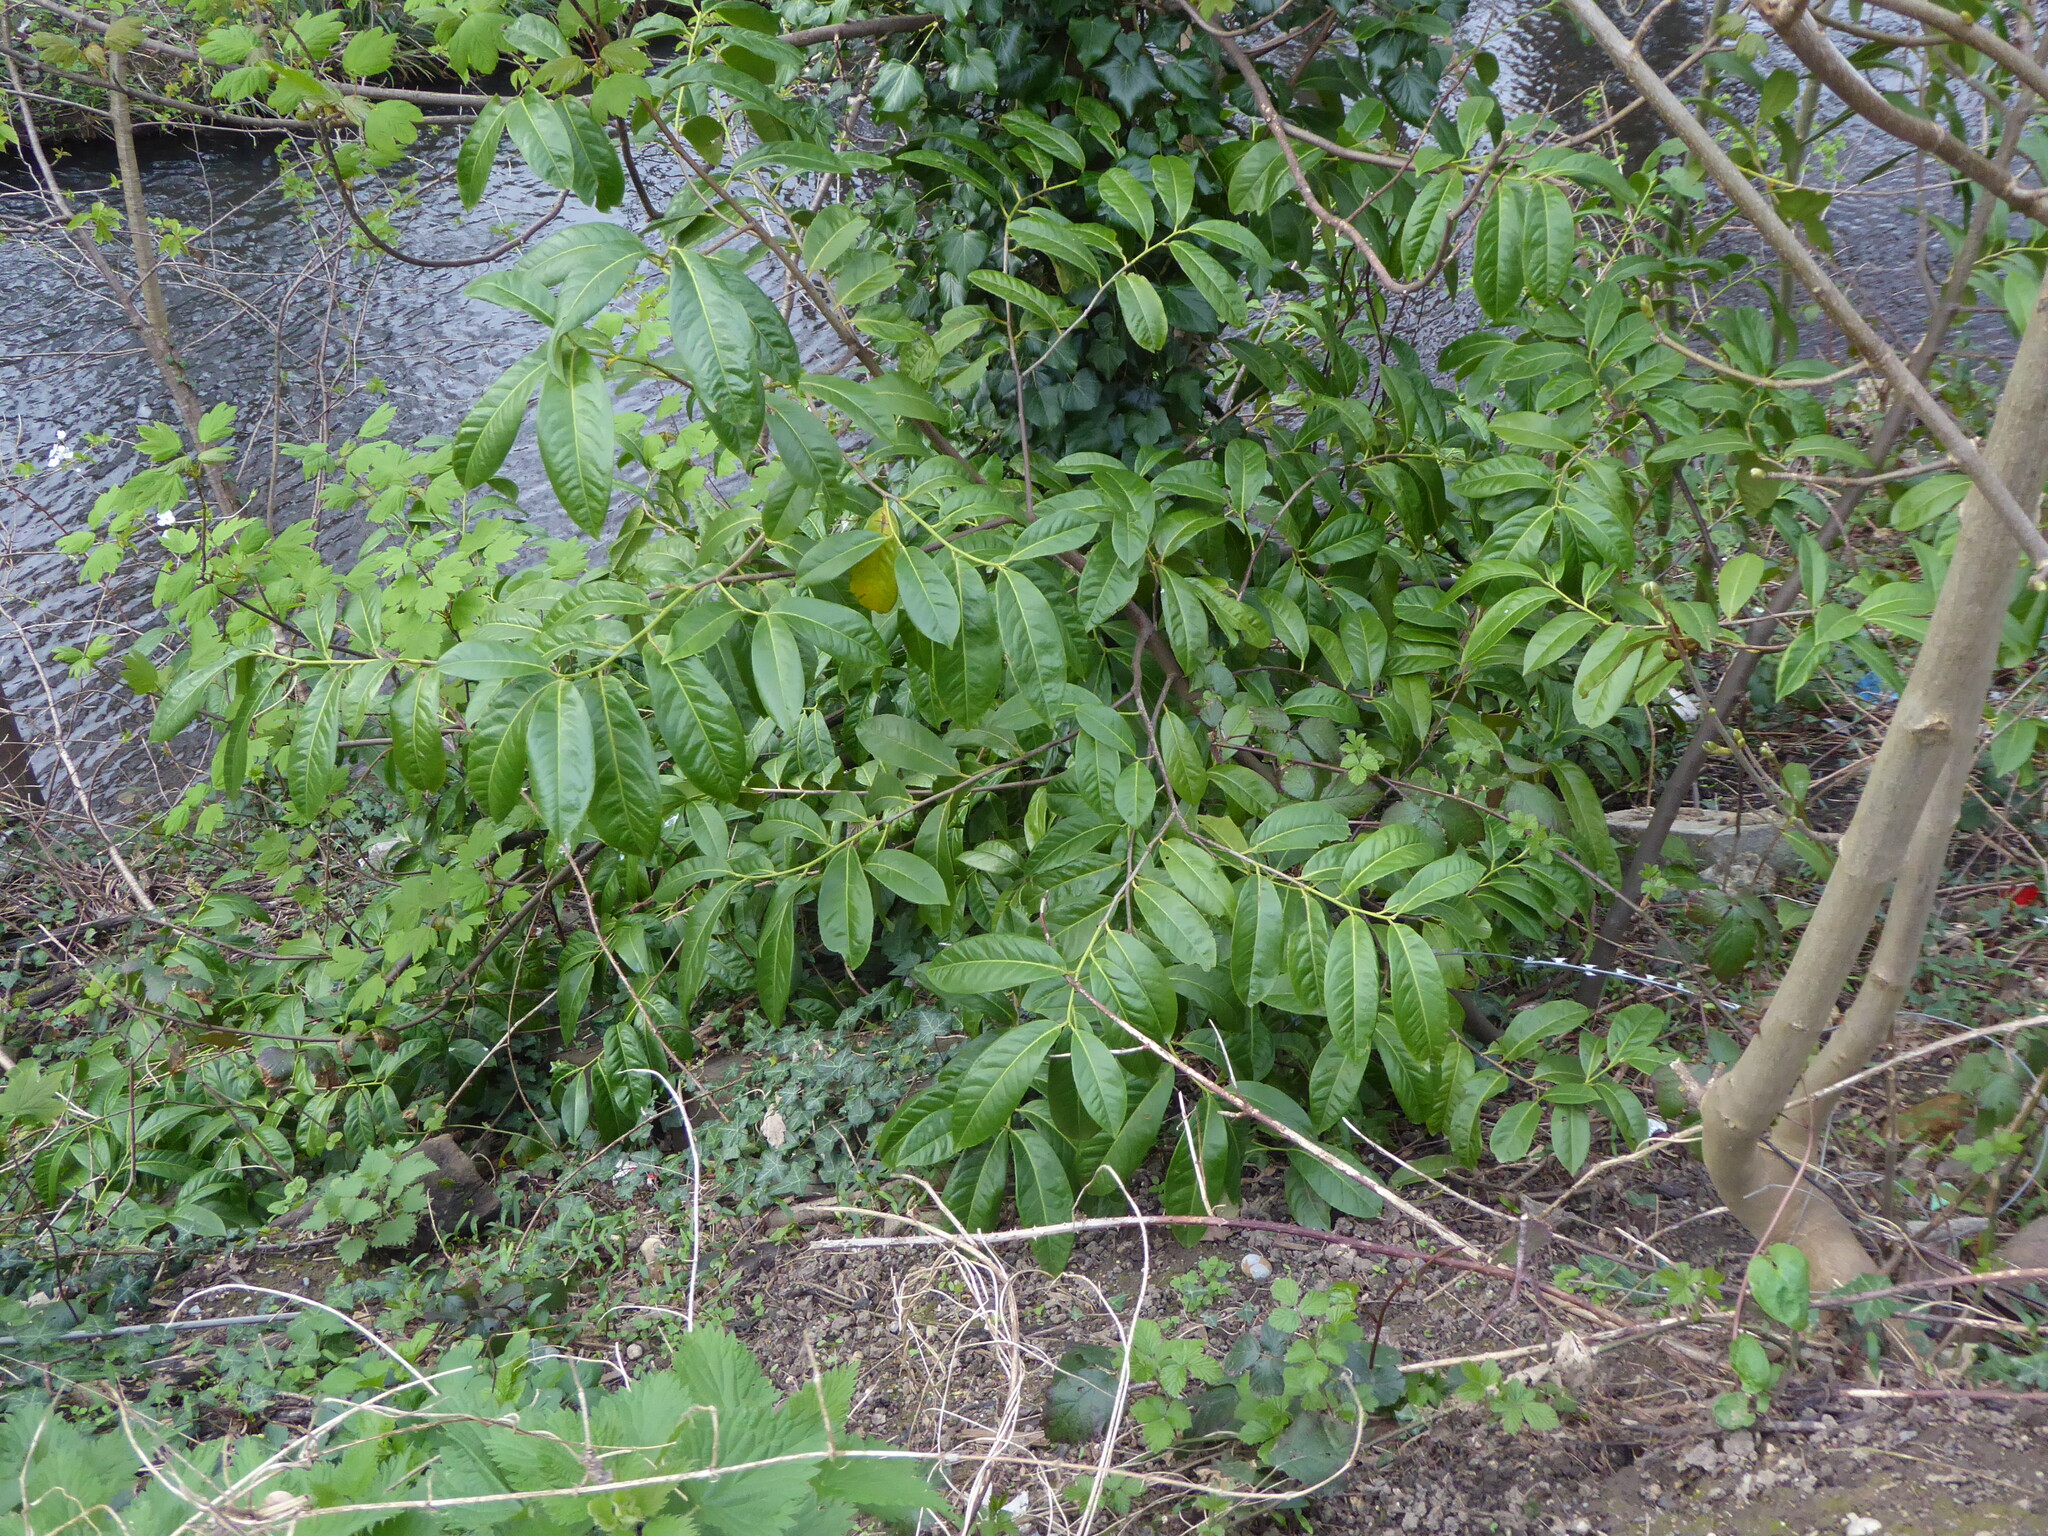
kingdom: Plantae
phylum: Tracheophyta
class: Magnoliopsida
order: Rosales
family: Rosaceae
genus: Prunus
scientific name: Prunus laurocerasus
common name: Cherry laurel
